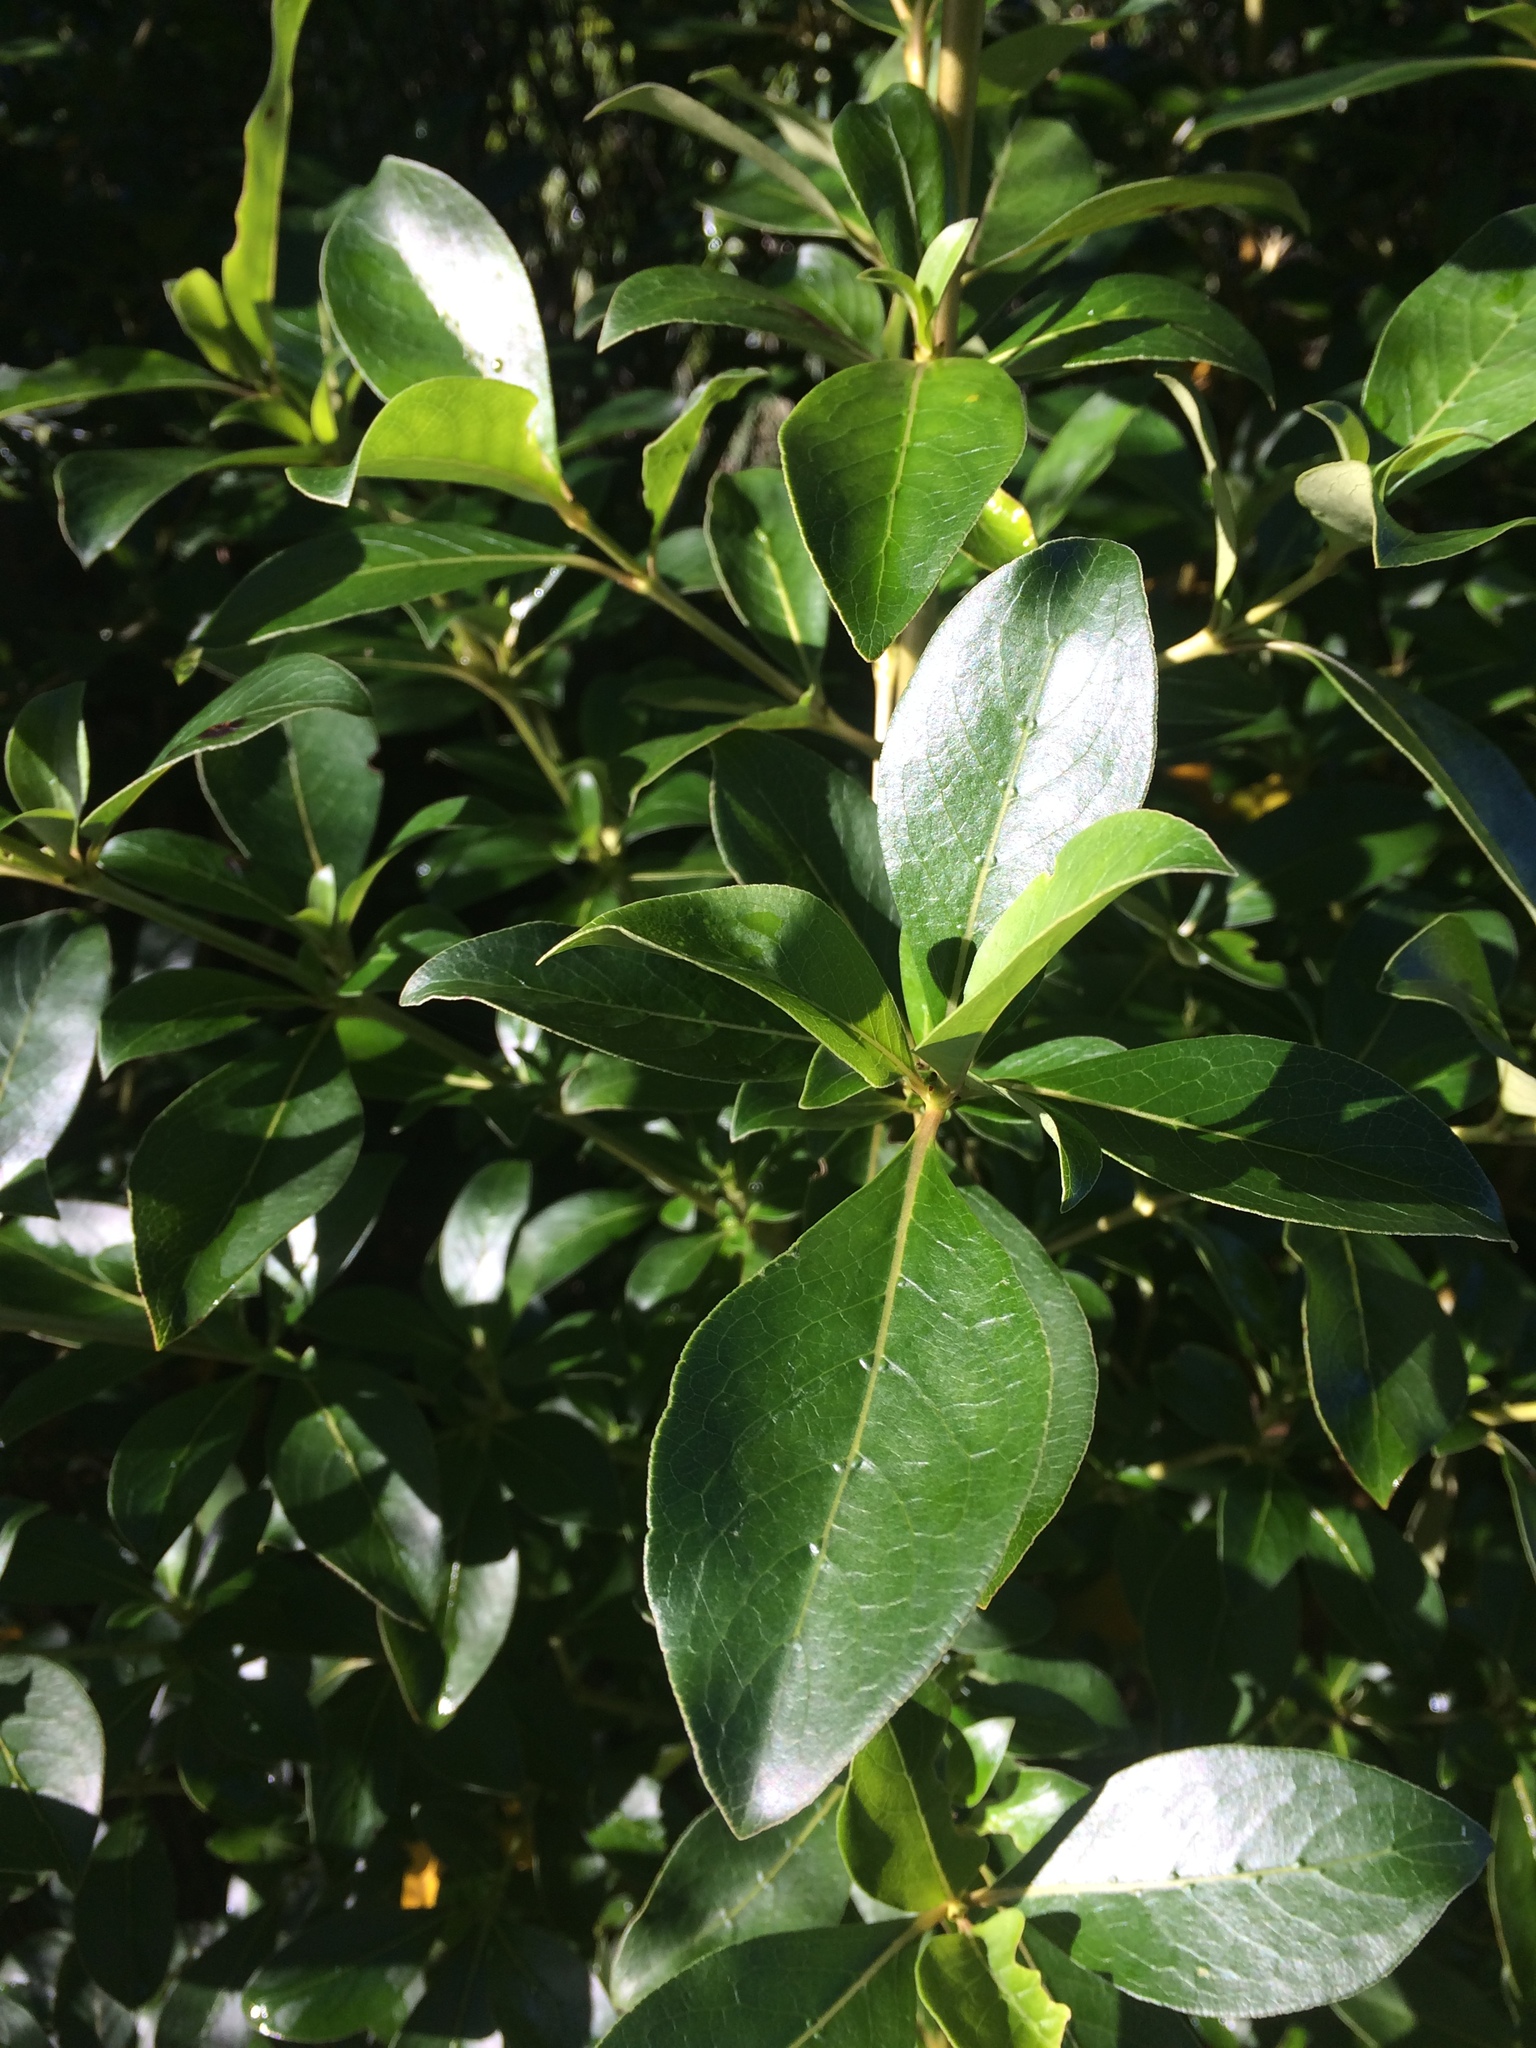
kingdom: Plantae
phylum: Tracheophyta
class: Magnoliopsida
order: Gentianales
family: Rubiaceae
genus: Coprosma
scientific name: Coprosma robusta
